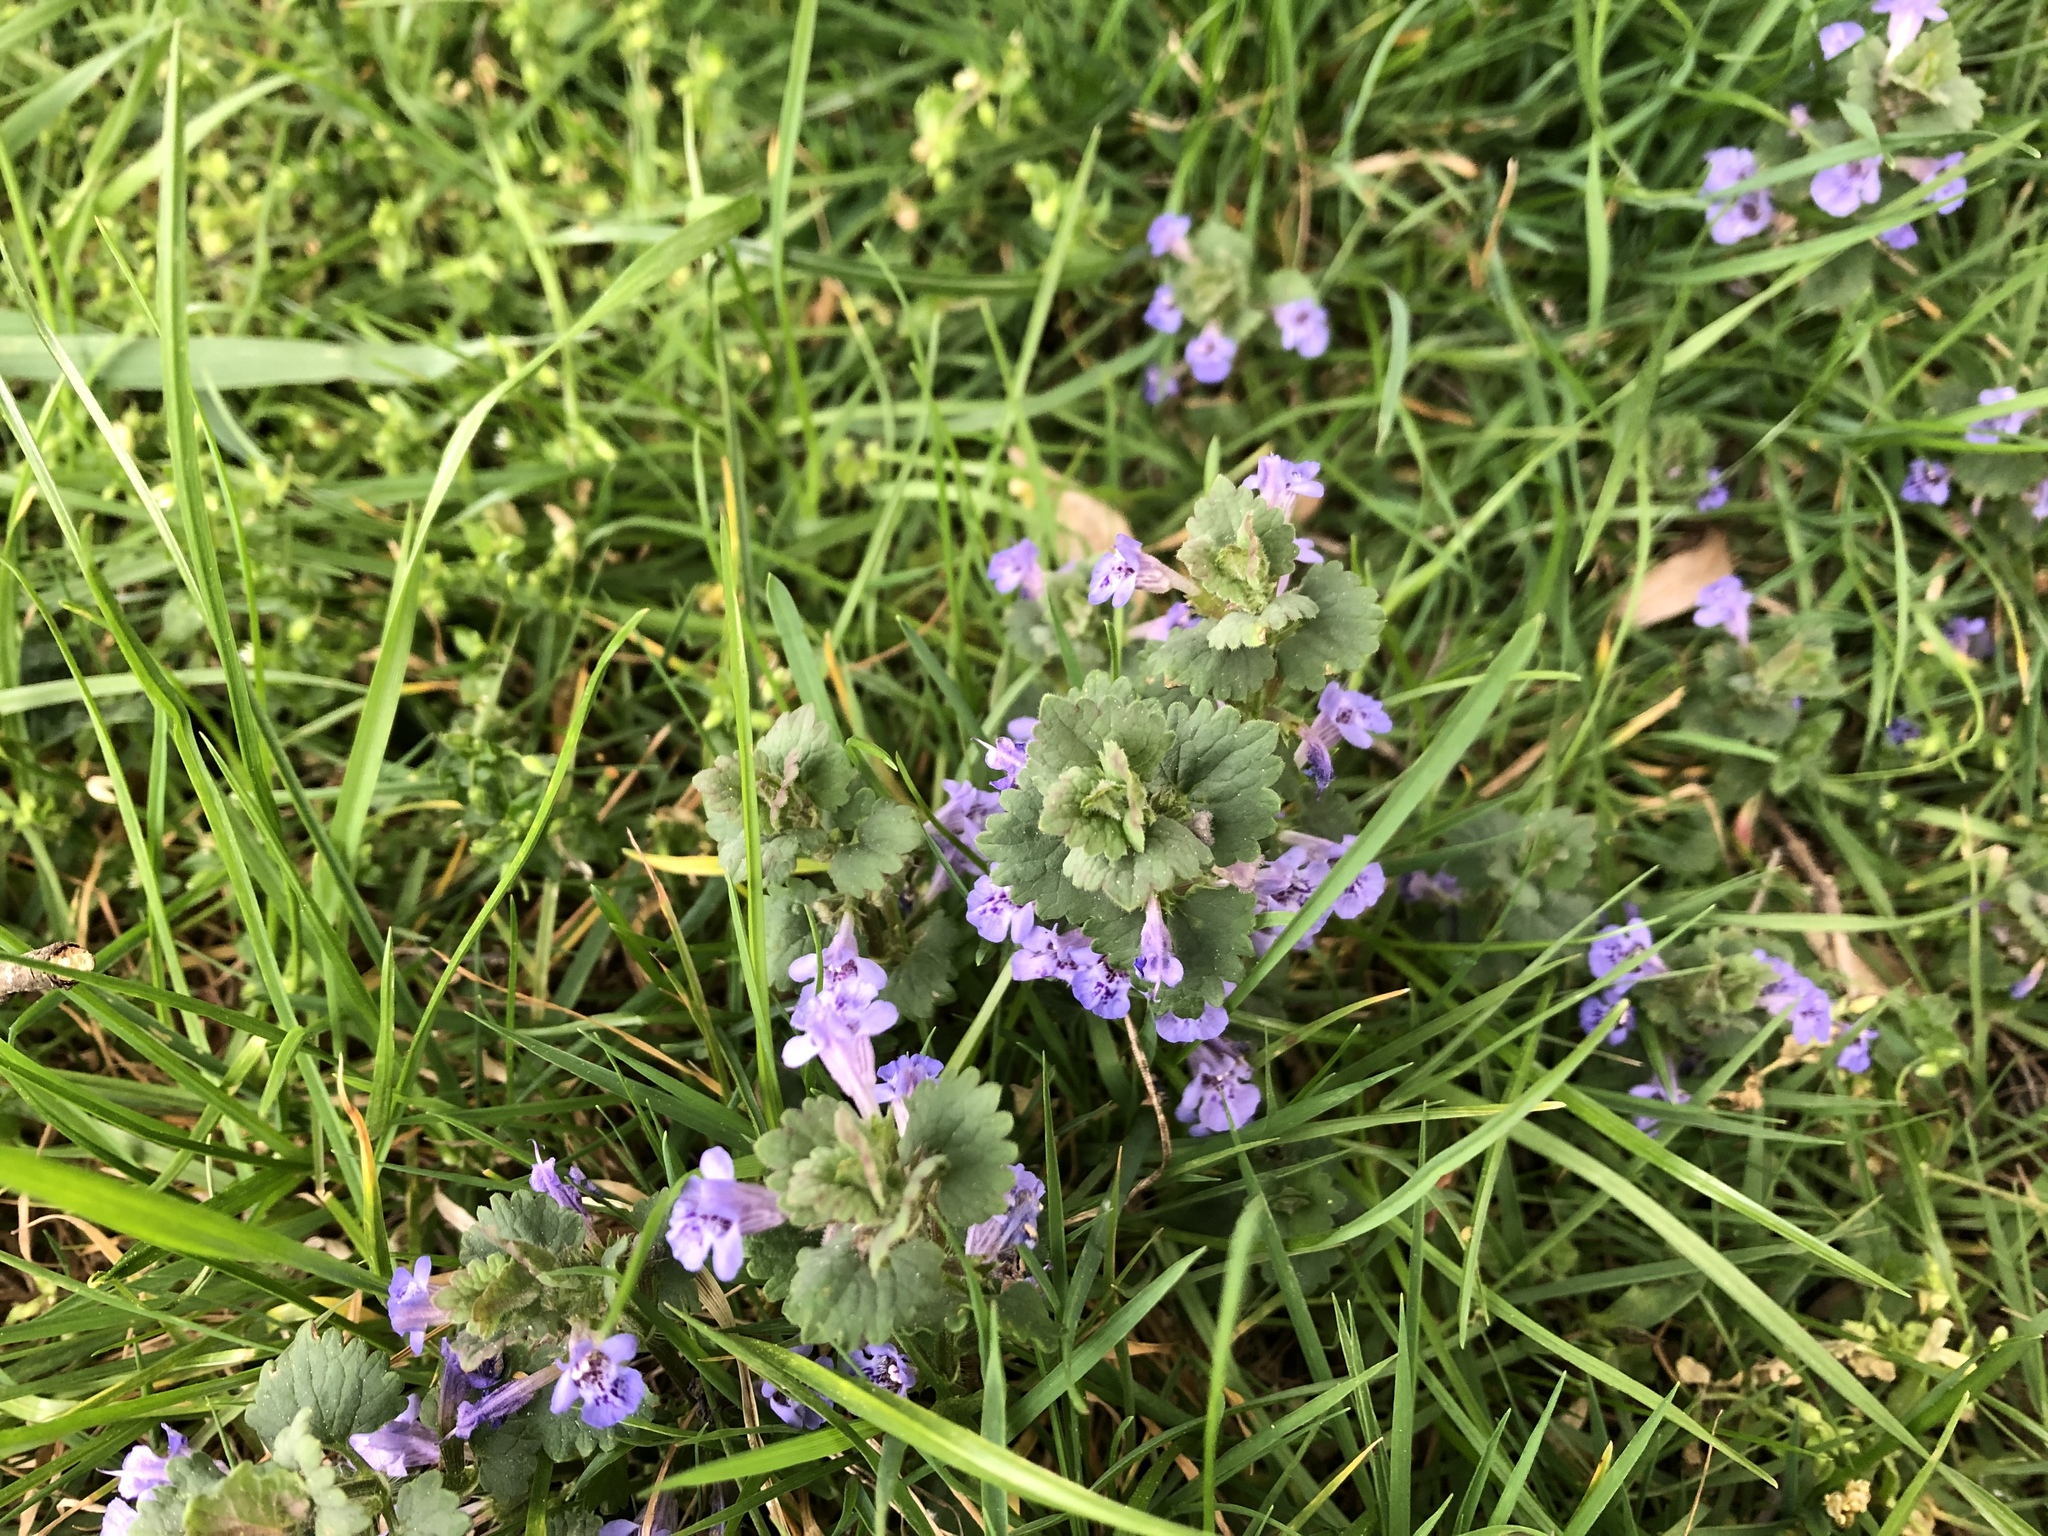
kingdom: Plantae
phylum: Tracheophyta
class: Magnoliopsida
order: Lamiales
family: Lamiaceae
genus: Glechoma
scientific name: Glechoma hederacea
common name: Ground ivy
